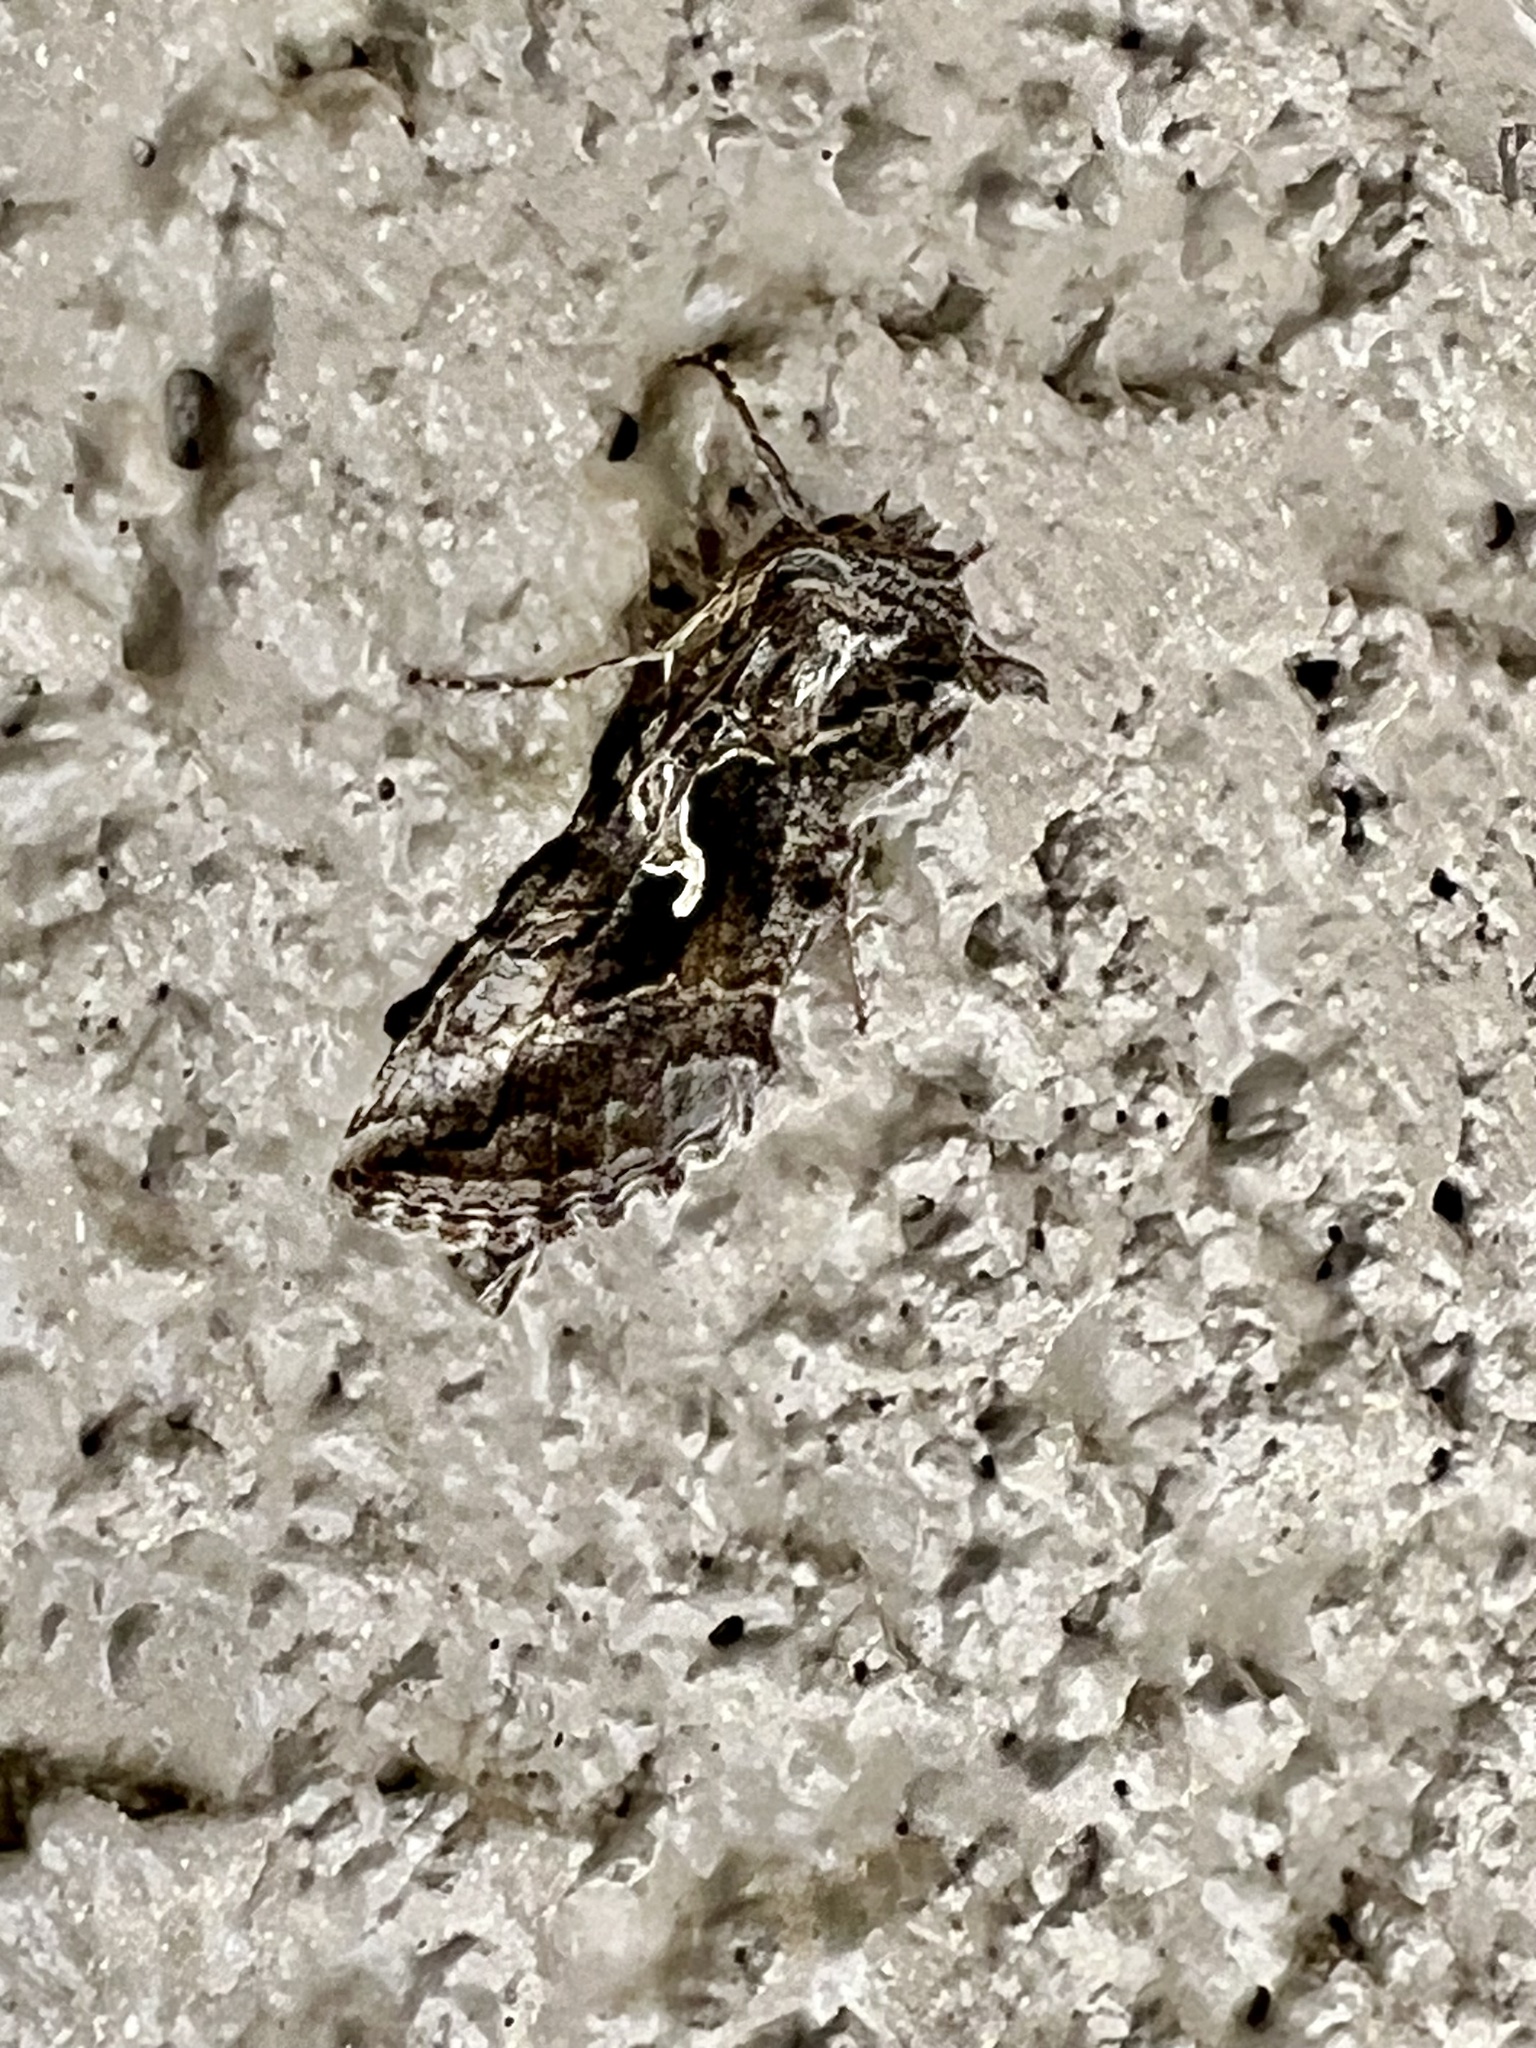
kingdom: Animalia
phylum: Arthropoda
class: Insecta
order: Lepidoptera
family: Noctuidae
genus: Autographa
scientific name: Autographa californica
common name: Alfalfa looper
